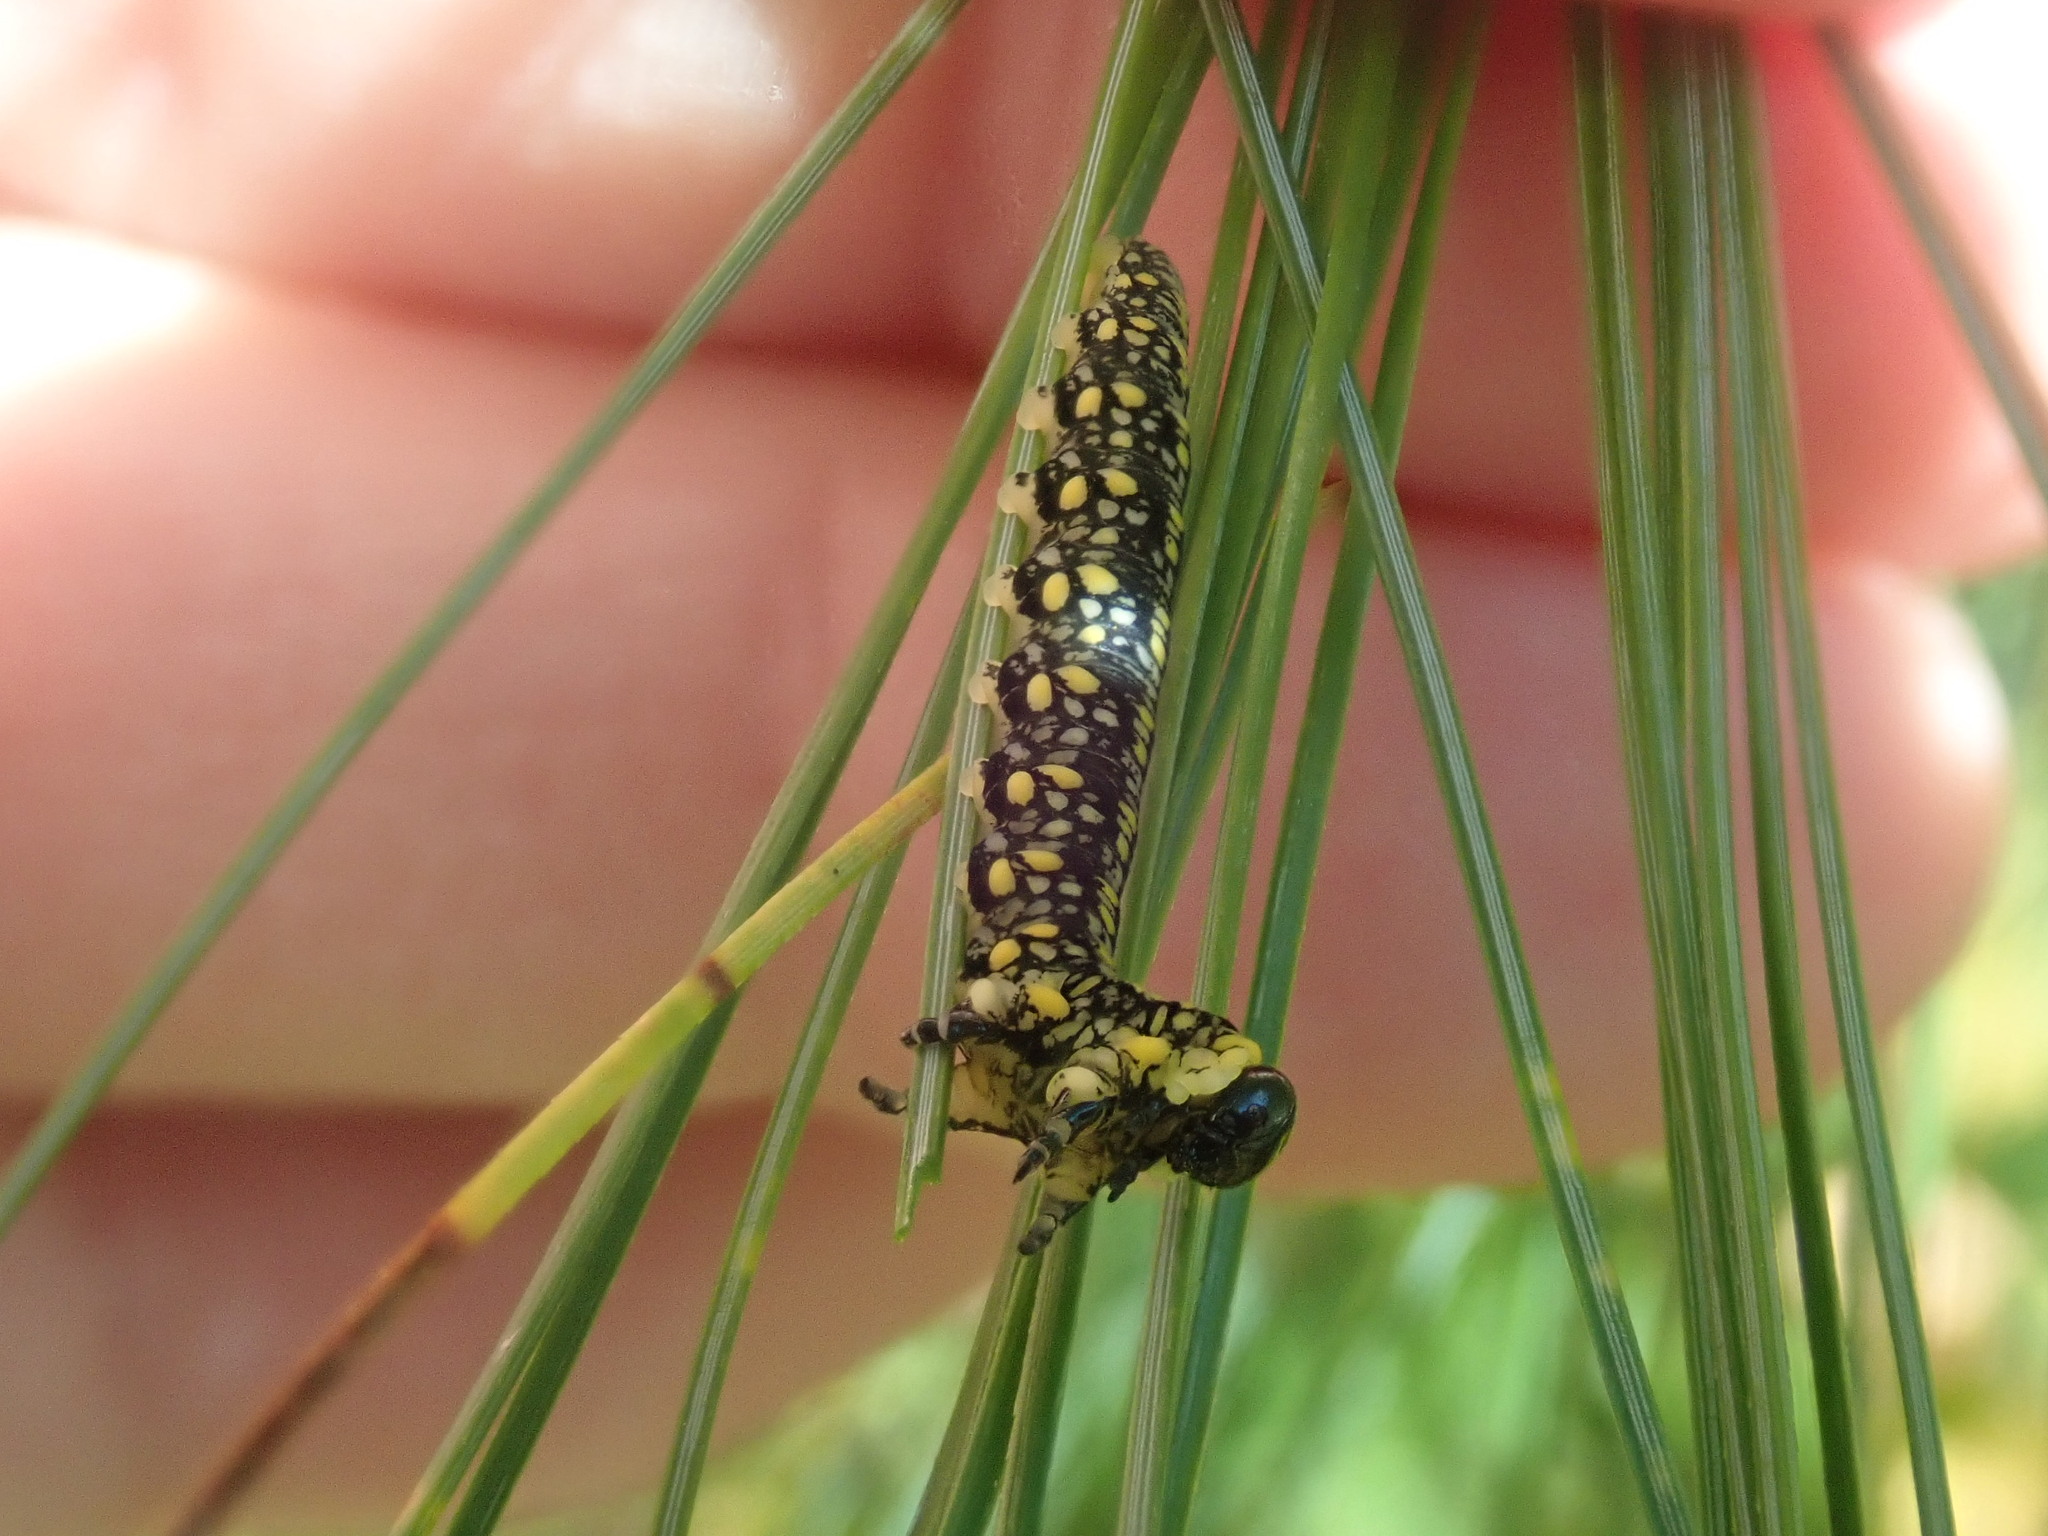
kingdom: Animalia
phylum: Arthropoda
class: Insecta
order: Hymenoptera
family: Diprionidae
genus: Diprion
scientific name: Diprion similis
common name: Pine sawfly
